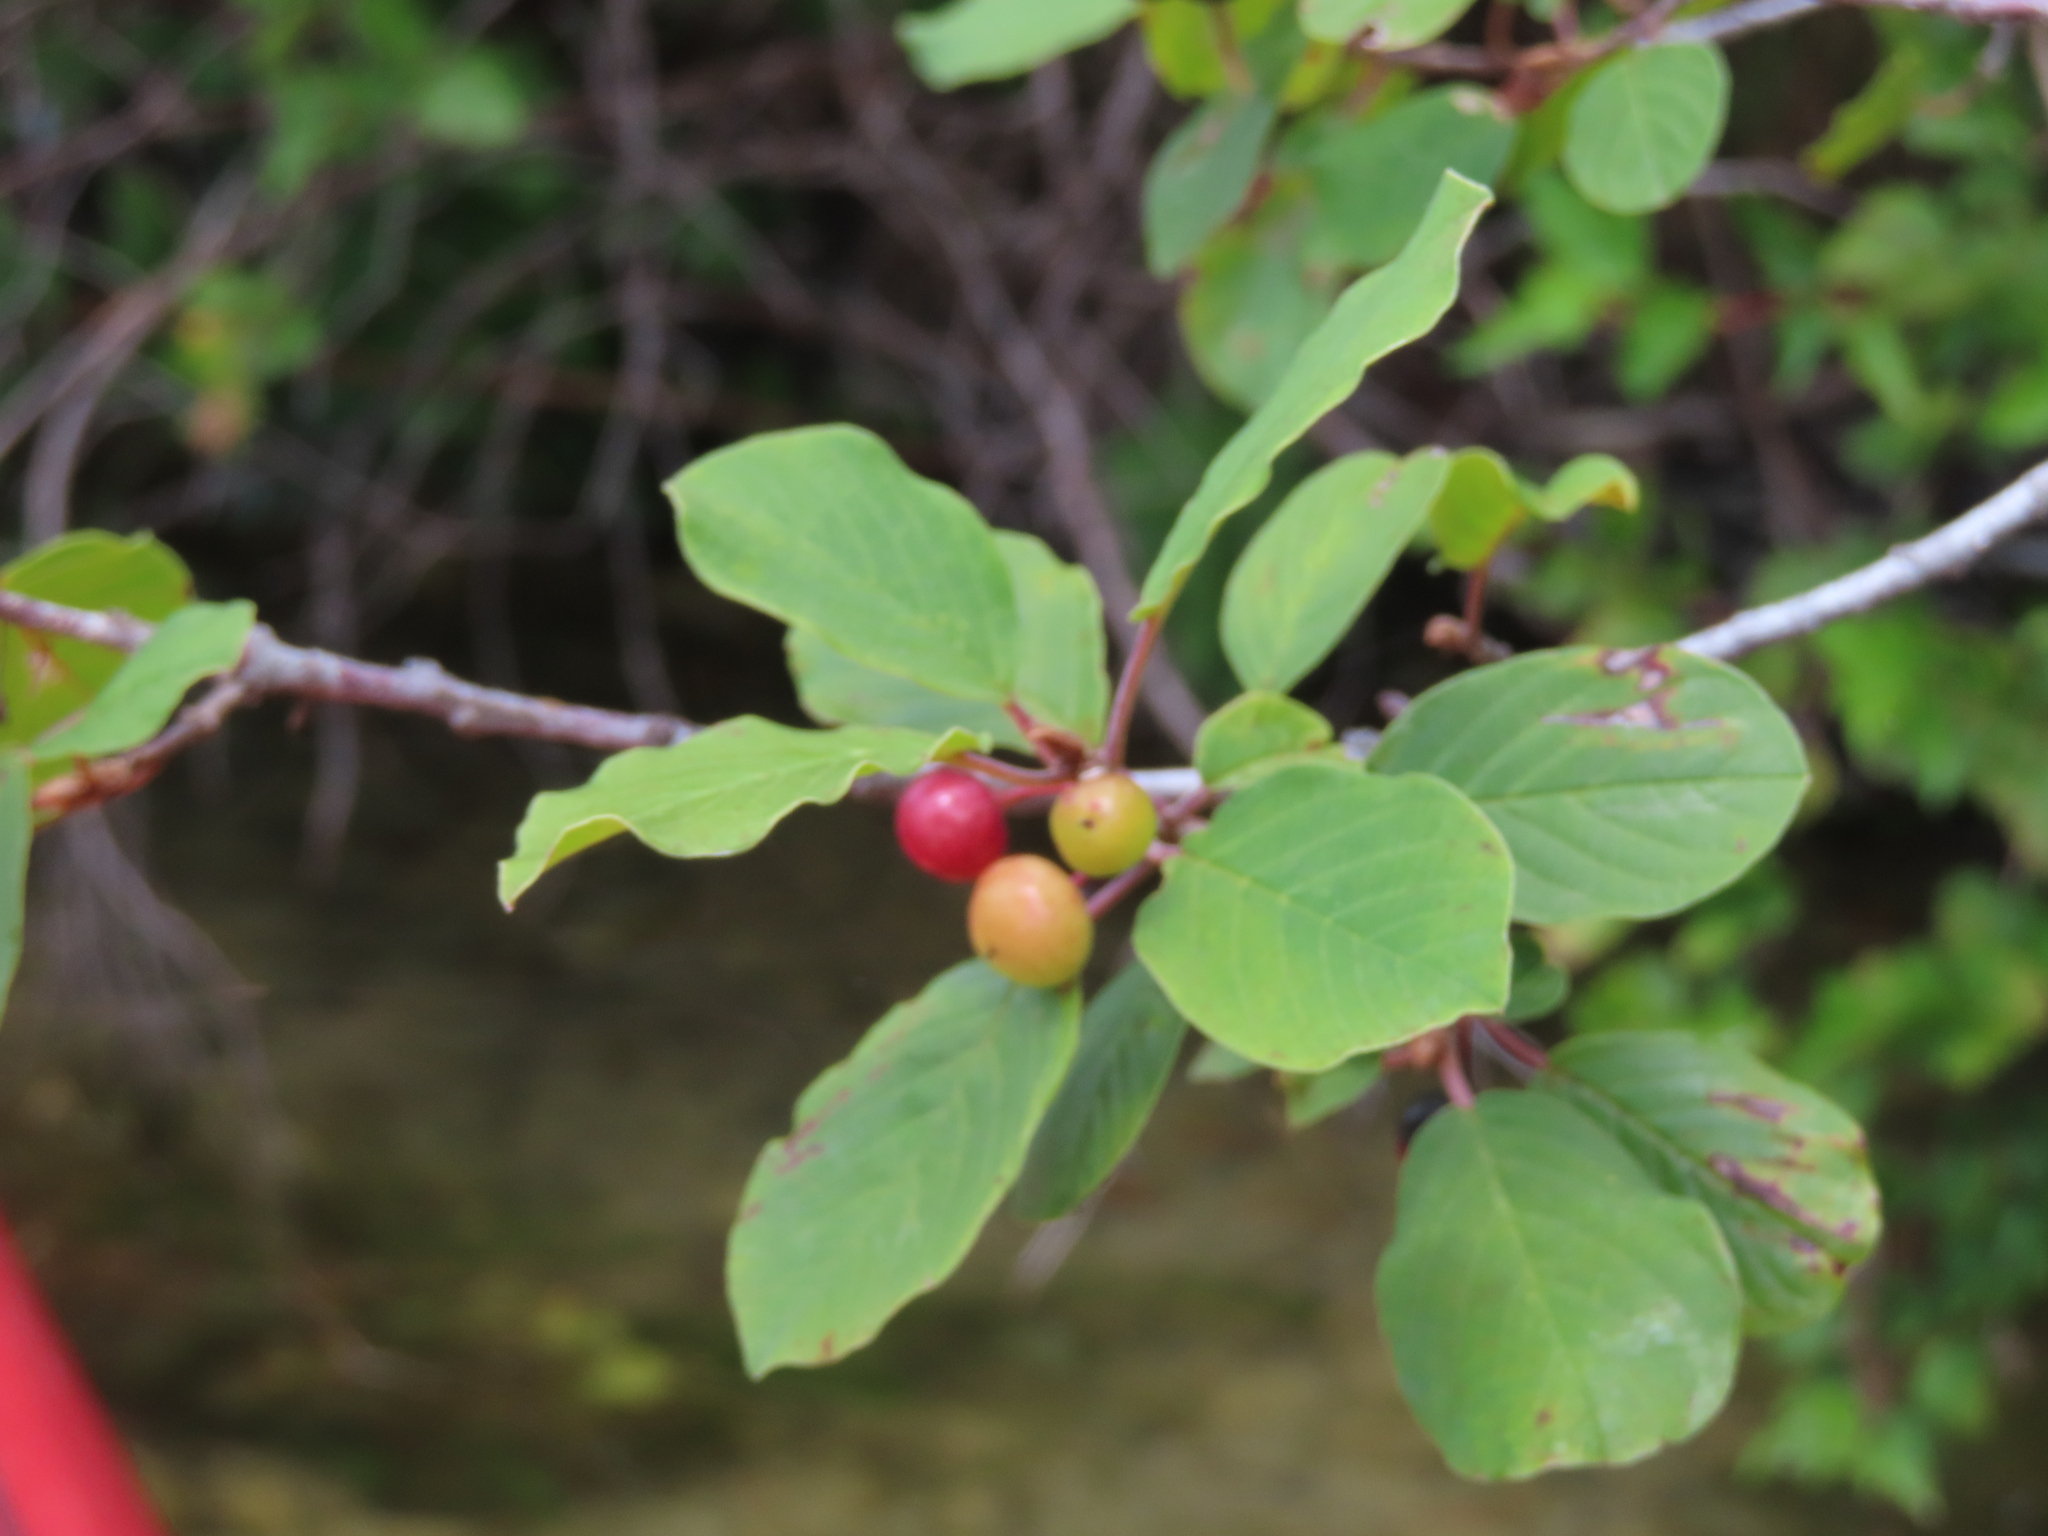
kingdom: Plantae
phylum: Tracheophyta
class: Magnoliopsida
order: Rosales
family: Rhamnaceae
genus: Frangula
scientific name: Frangula alnus
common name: Alder buckthorn
